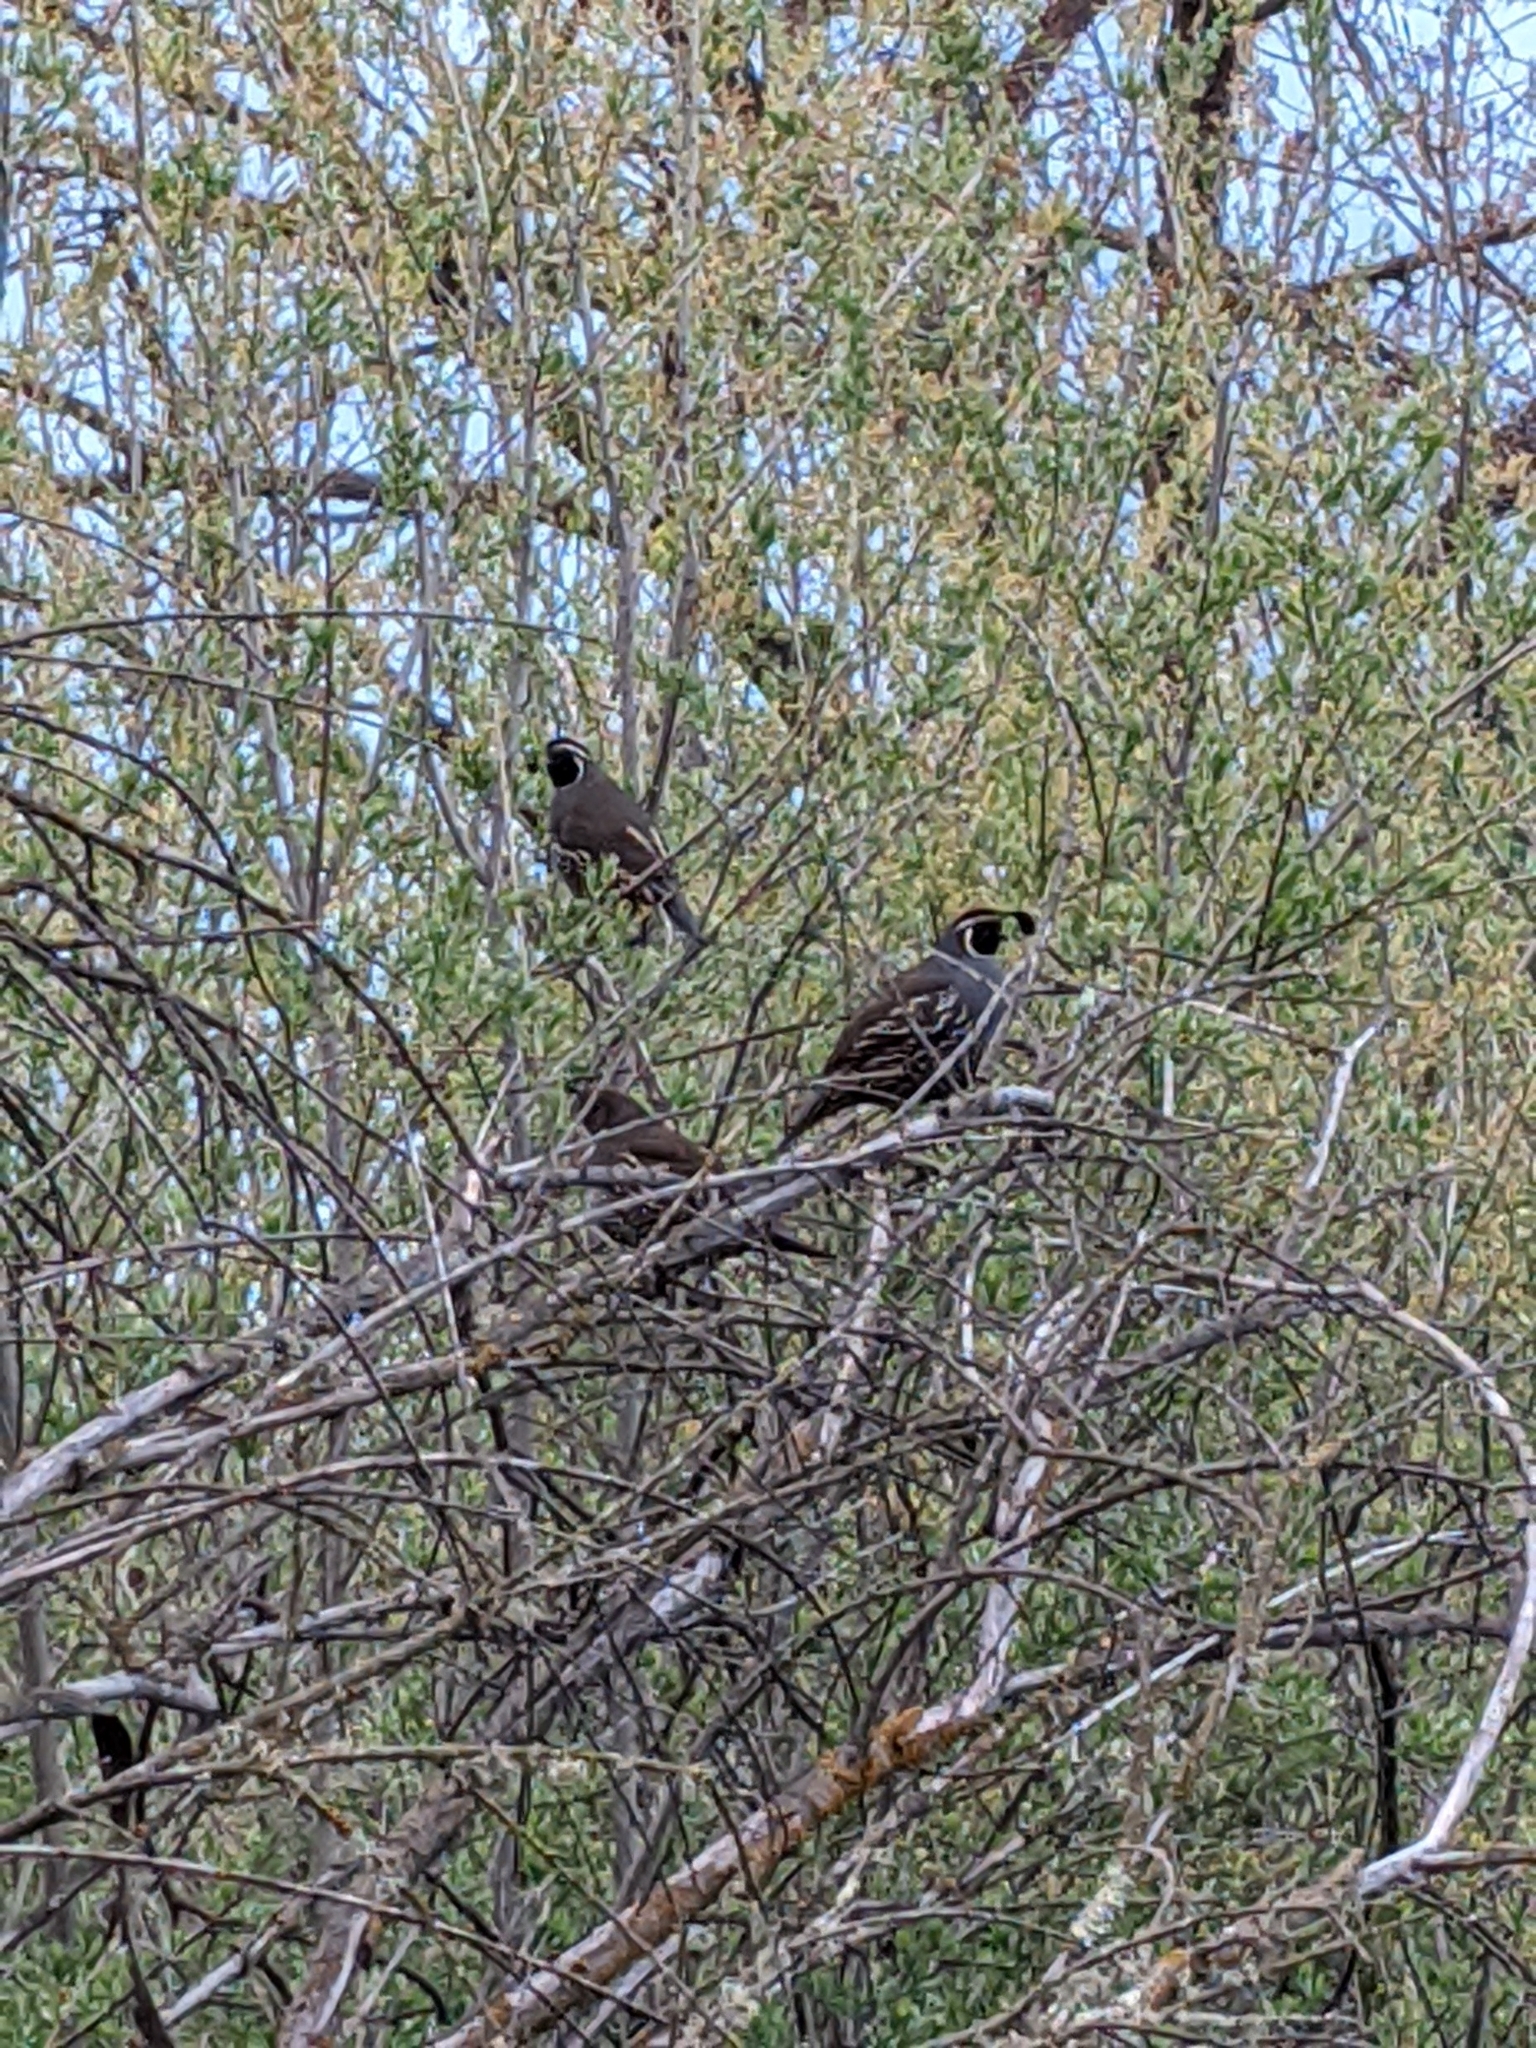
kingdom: Animalia
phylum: Chordata
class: Aves
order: Galliformes
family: Odontophoridae
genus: Callipepla
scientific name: Callipepla californica
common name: California quail
